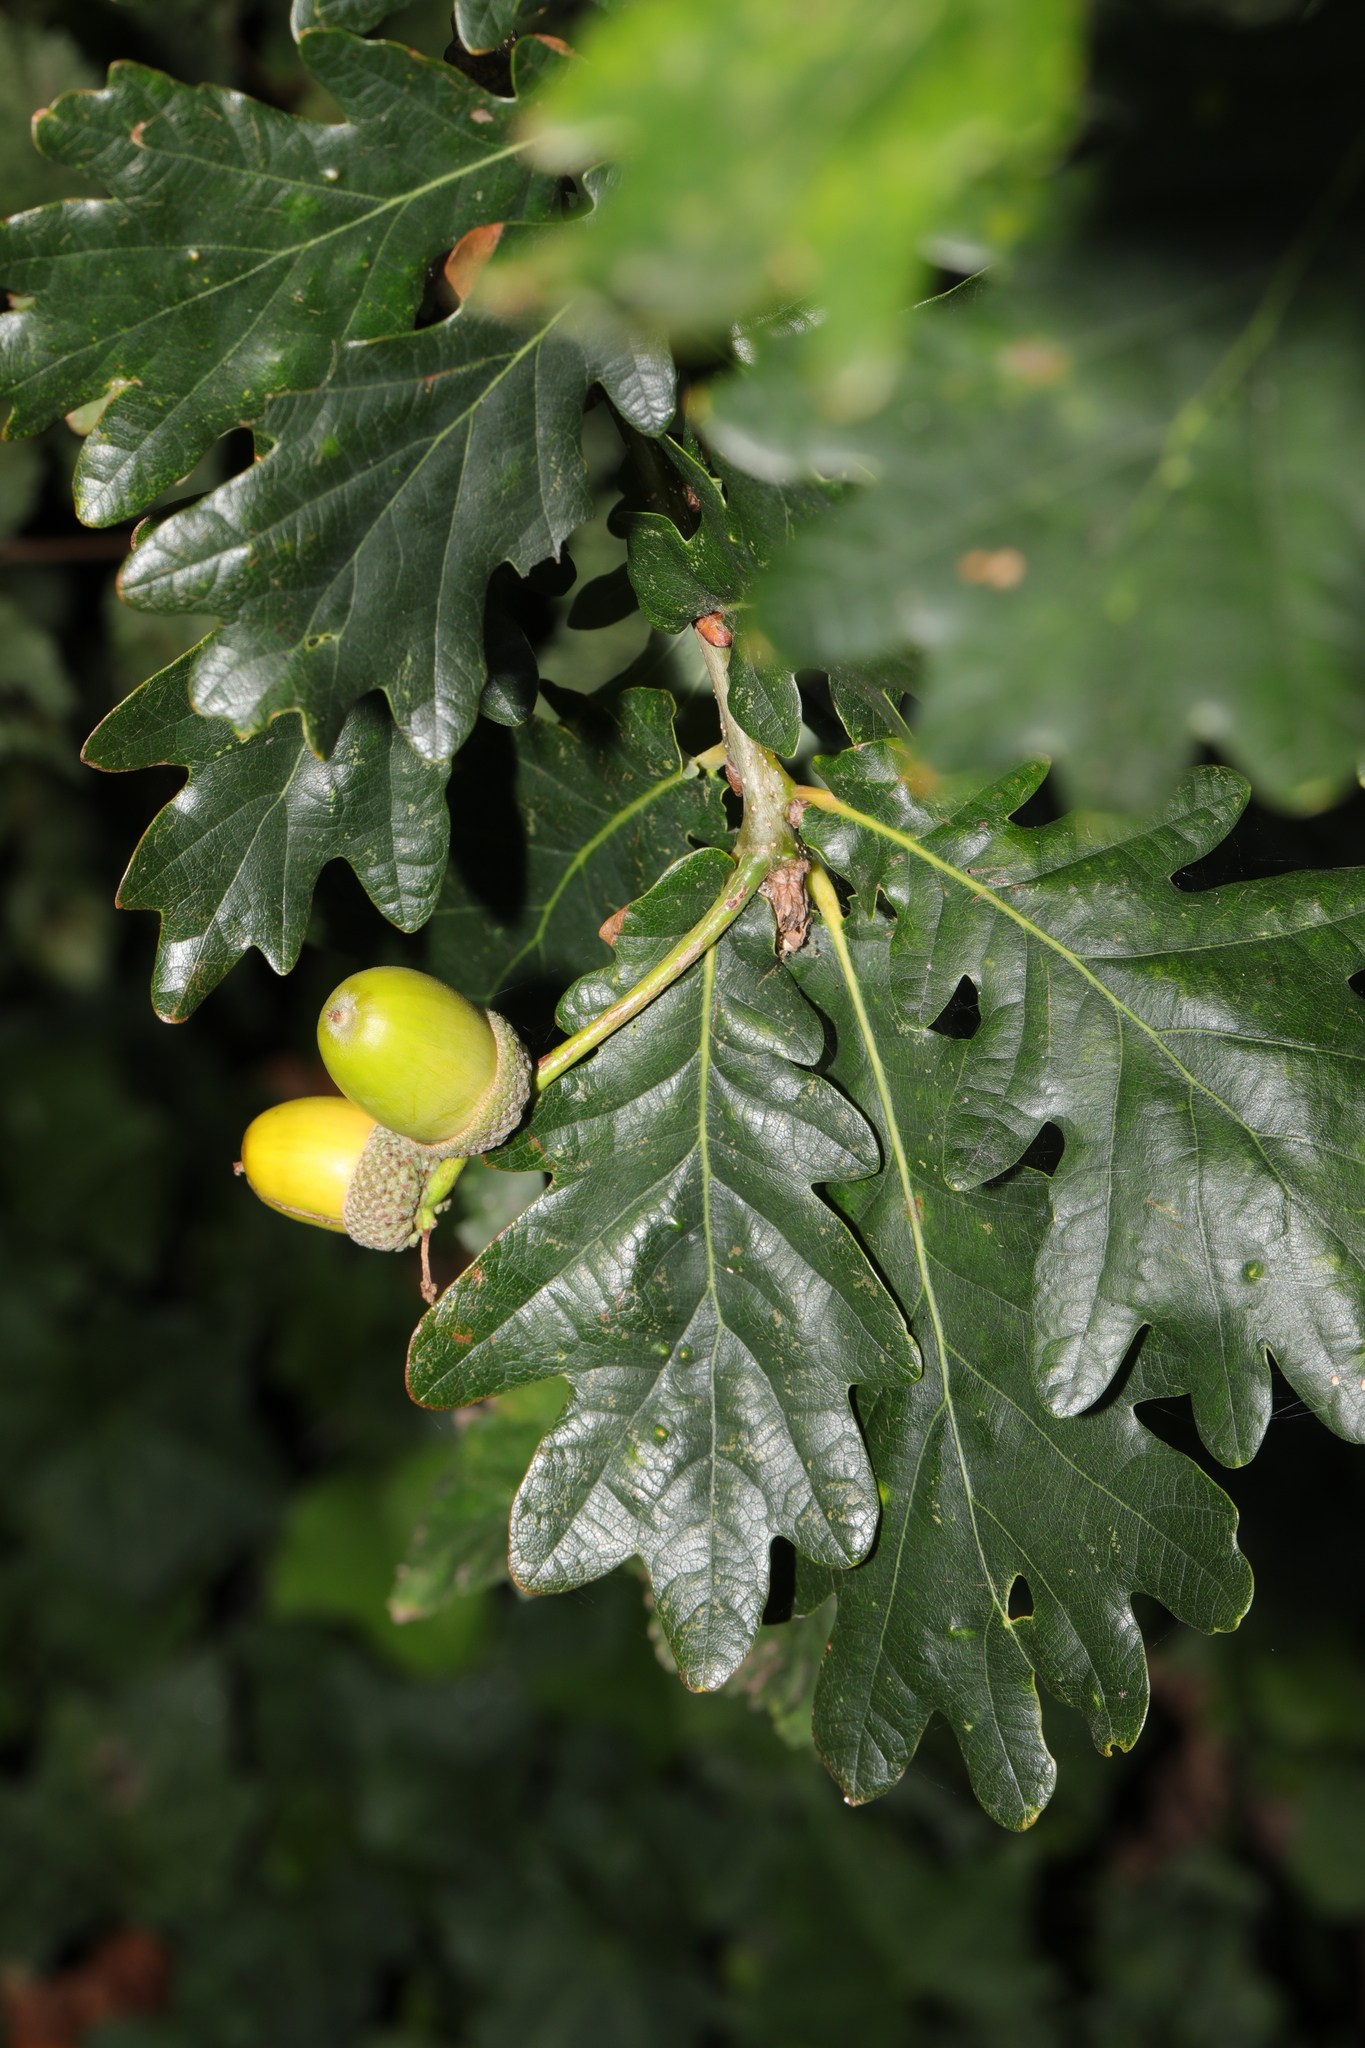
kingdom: Plantae
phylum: Tracheophyta
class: Magnoliopsida
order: Fagales
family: Fagaceae
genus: Quercus
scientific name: Quercus petraea
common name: Sessile oak
